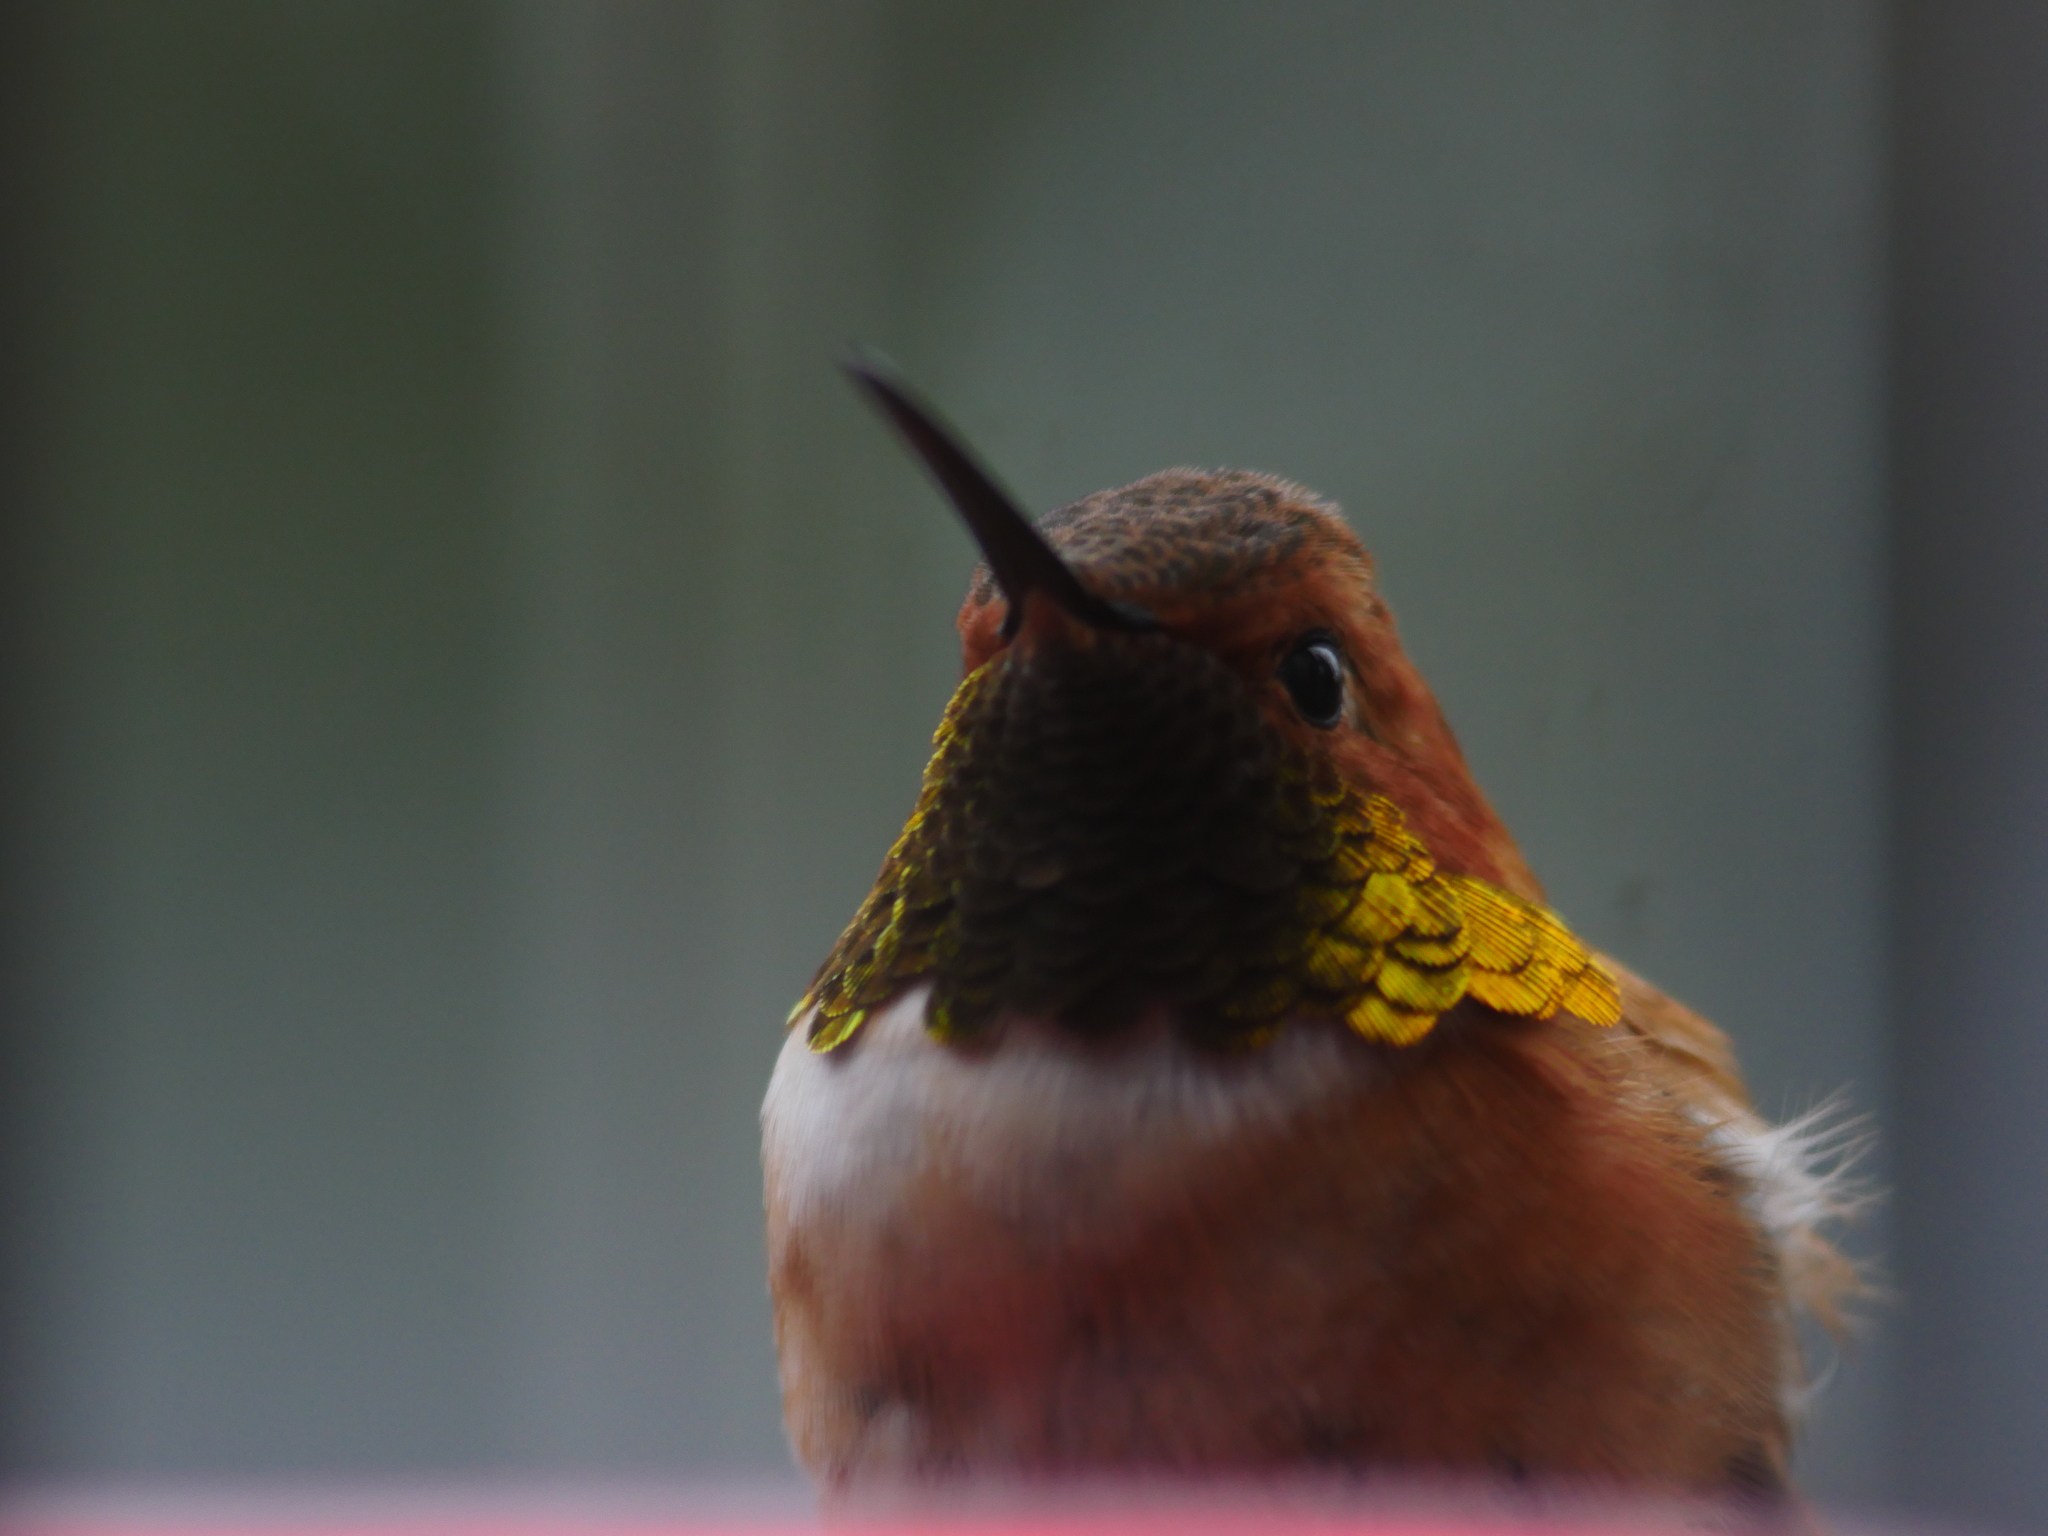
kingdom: Animalia
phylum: Chordata
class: Aves
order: Apodiformes
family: Trochilidae
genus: Selasphorus
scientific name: Selasphorus rufus
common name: Rufous hummingbird
